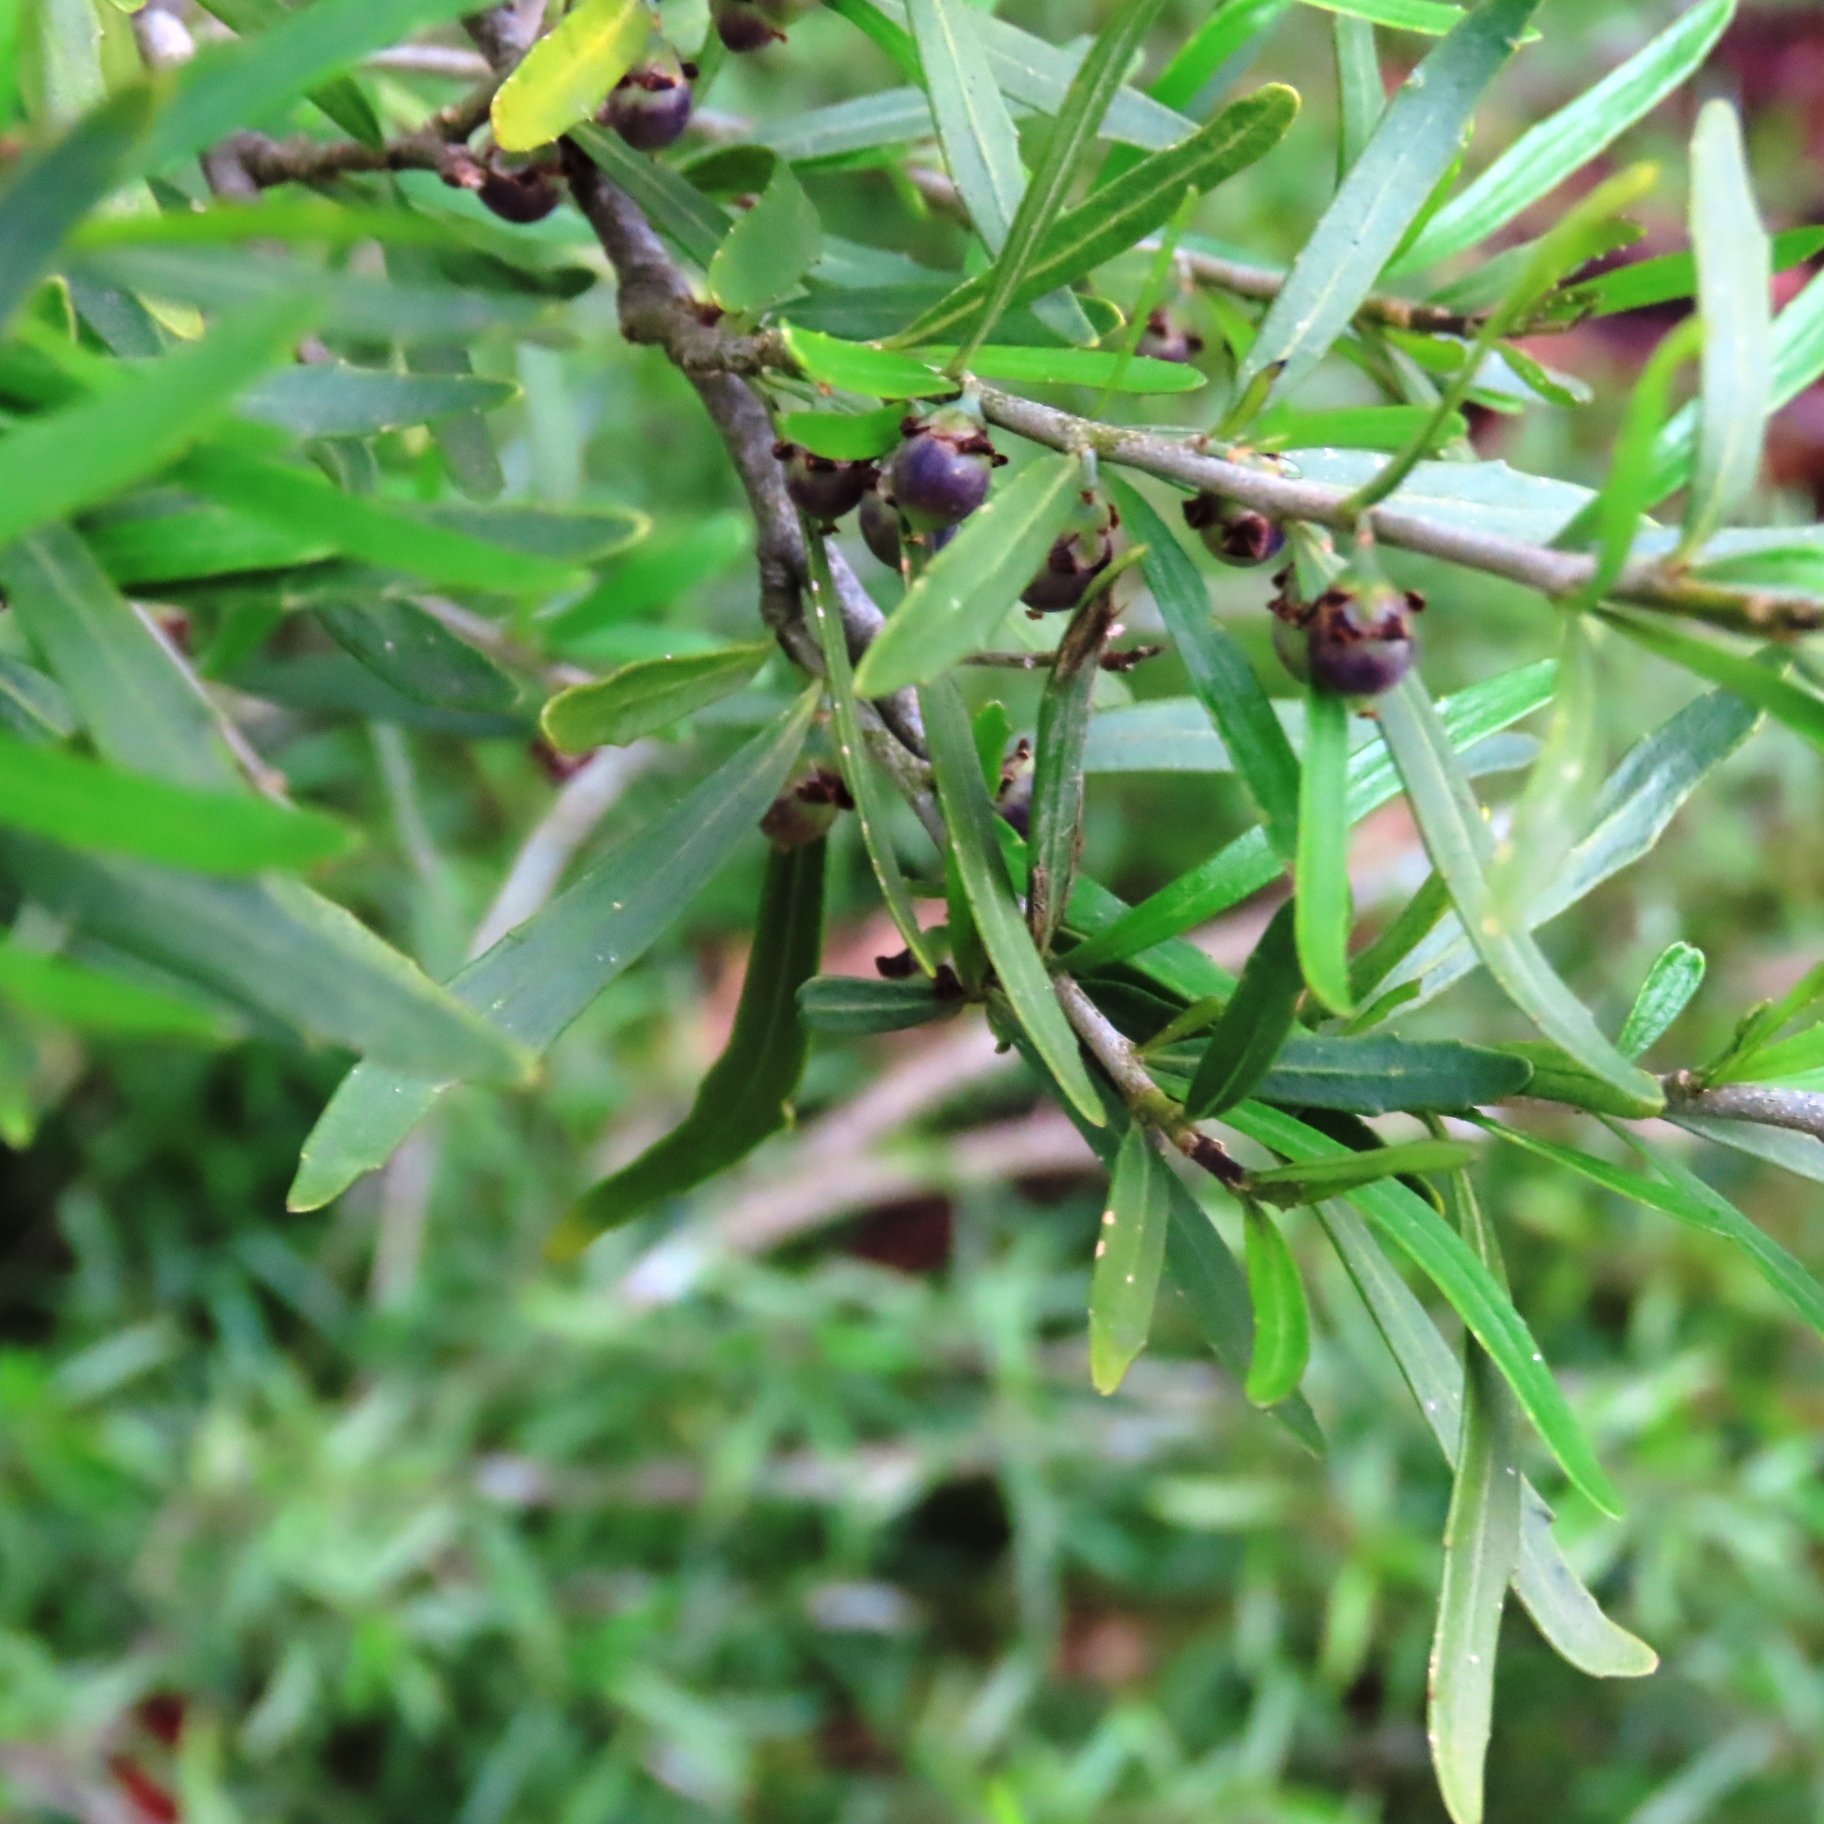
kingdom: Plantae
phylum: Tracheophyta
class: Magnoliopsida
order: Malpighiales
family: Violaceae
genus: Melicytus
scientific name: Melicytus dentatus
